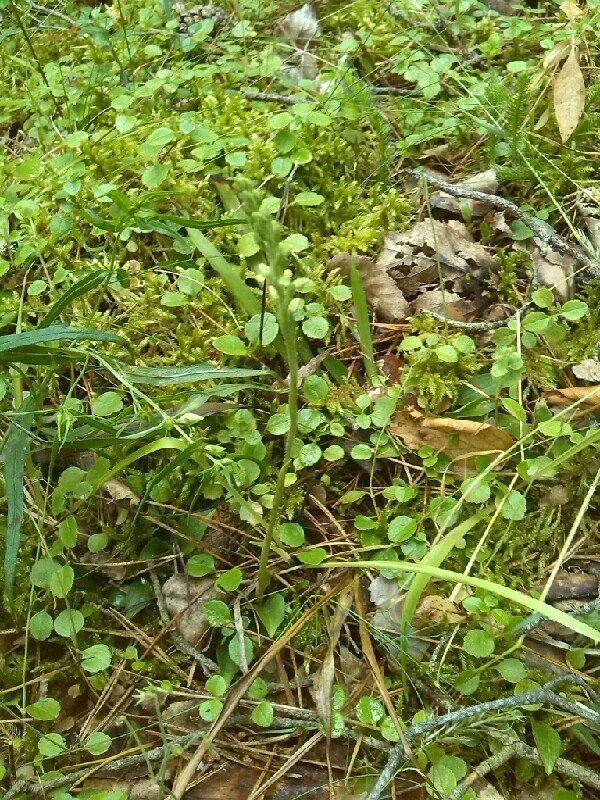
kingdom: Plantae
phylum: Tracheophyta
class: Magnoliopsida
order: Dipsacales
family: Caprifoliaceae
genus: Linnaea
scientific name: Linnaea borealis
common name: Twinflower
